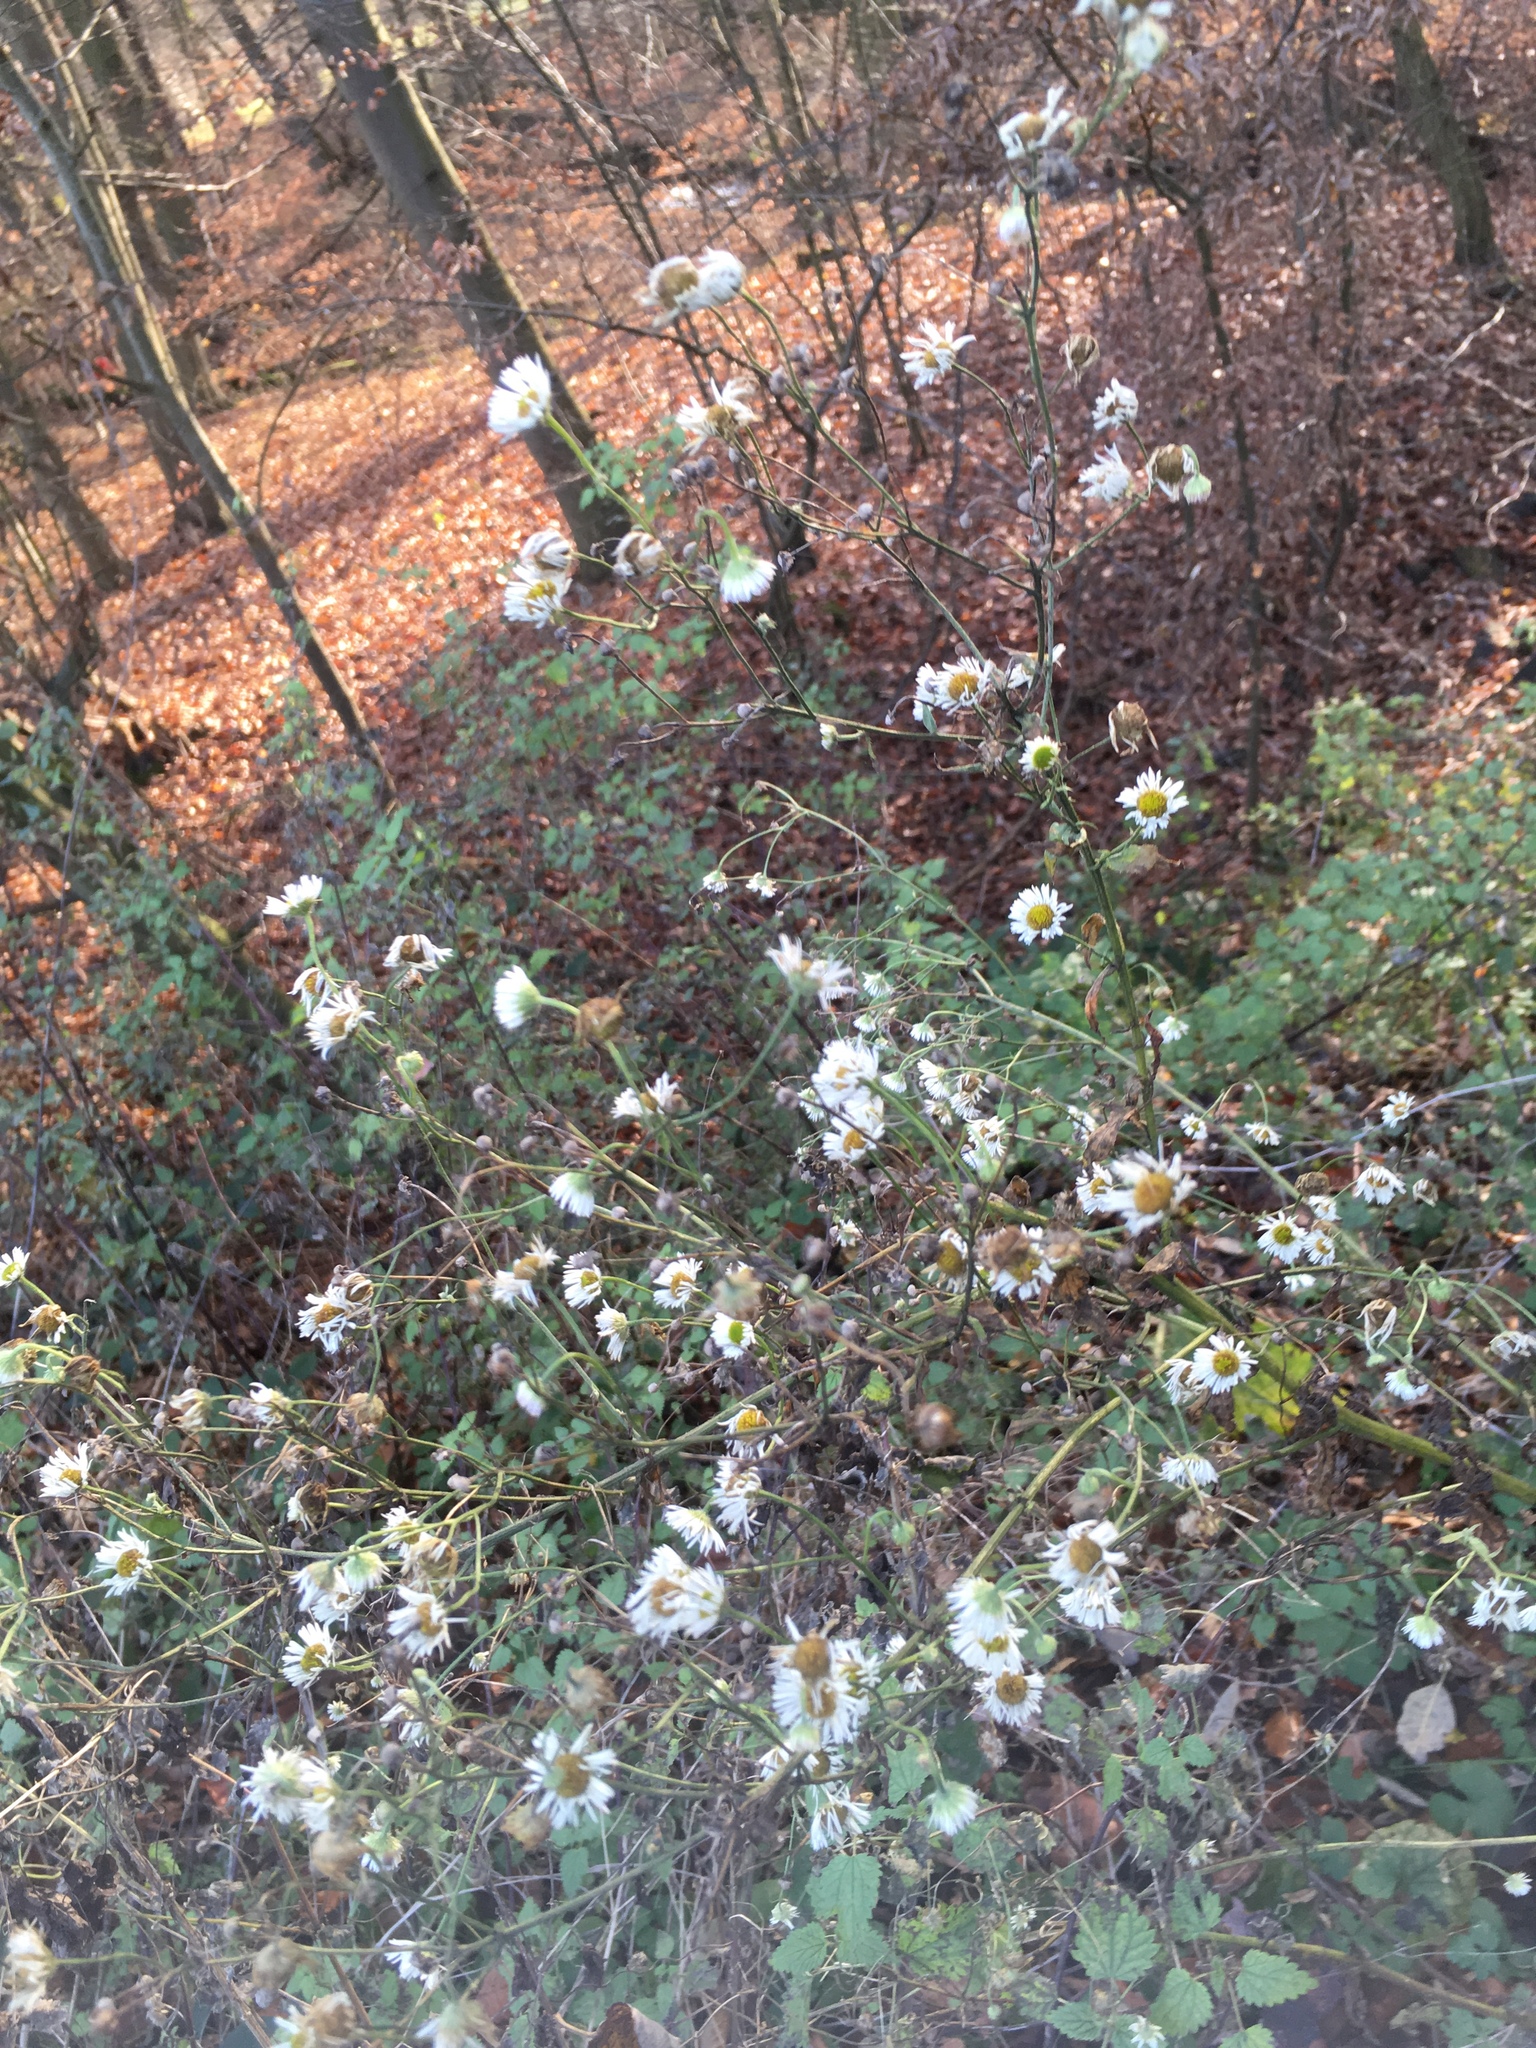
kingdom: Plantae
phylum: Tracheophyta
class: Magnoliopsida
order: Asterales
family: Asteraceae
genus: Erigeron
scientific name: Erigeron annuus
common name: Tall fleabane
